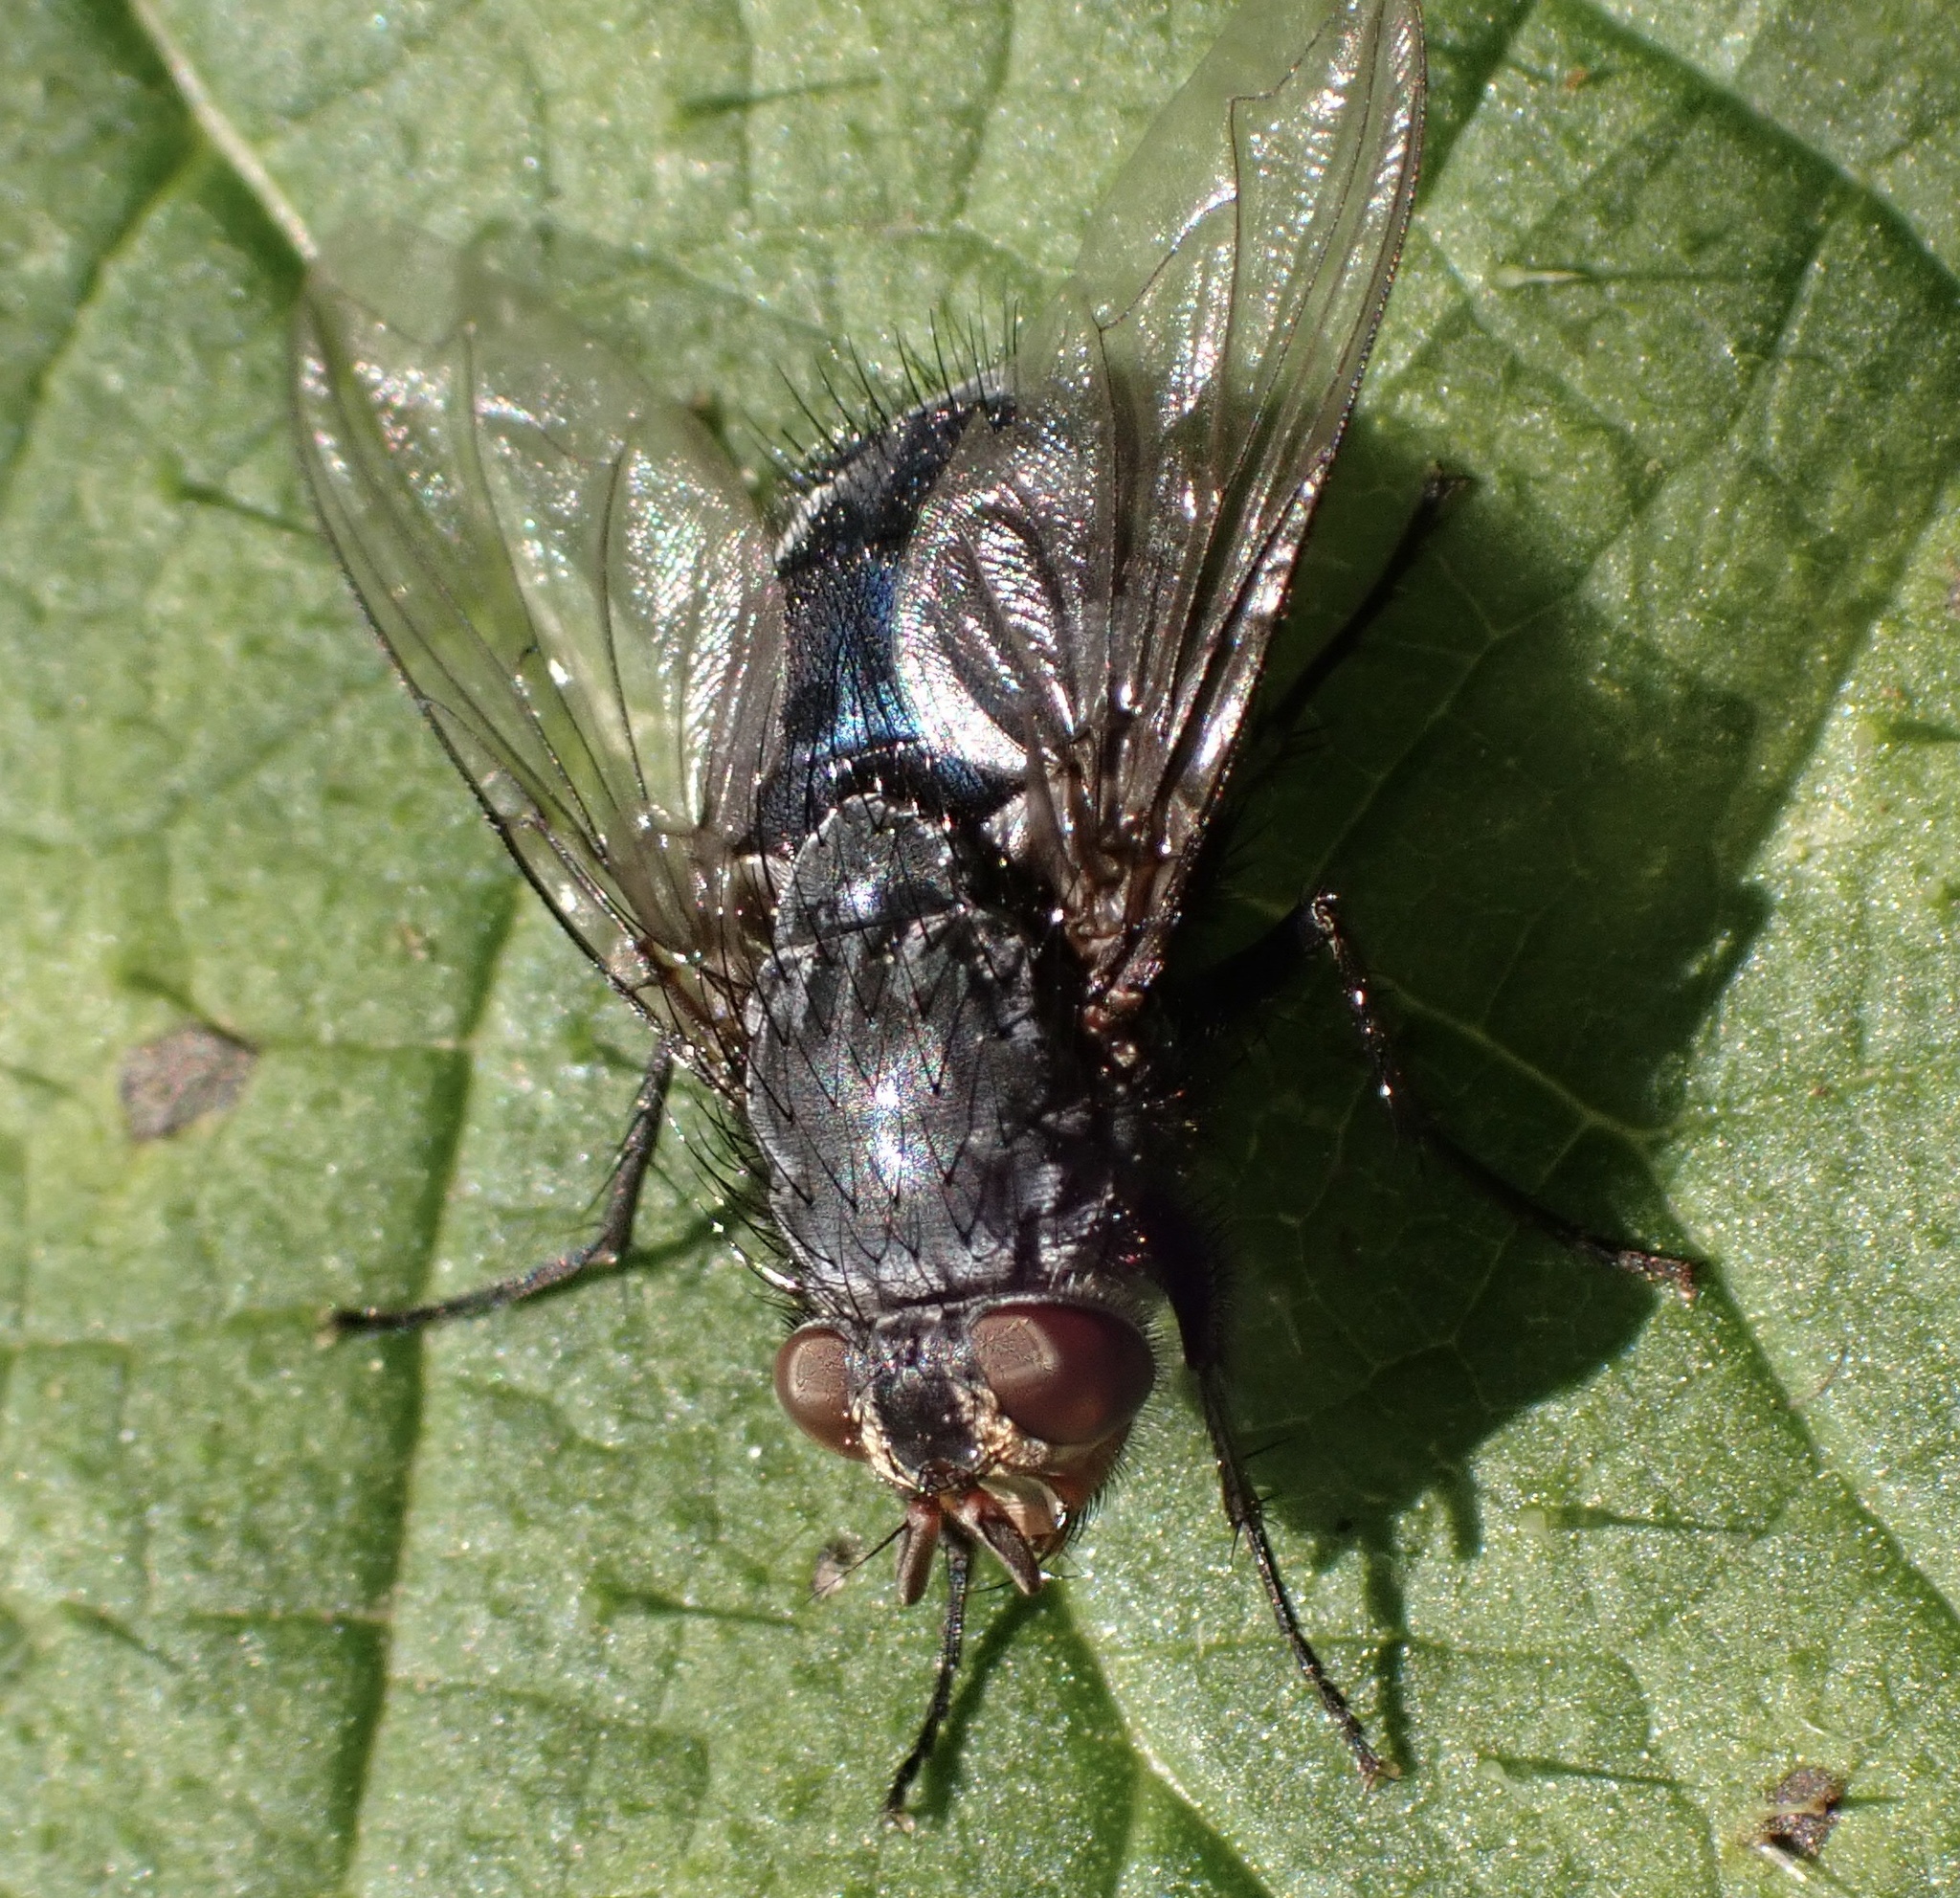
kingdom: Animalia
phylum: Arthropoda
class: Insecta
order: Diptera
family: Calliphoridae
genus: Calliphora
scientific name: Calliphora vicina
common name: Common blow flie
